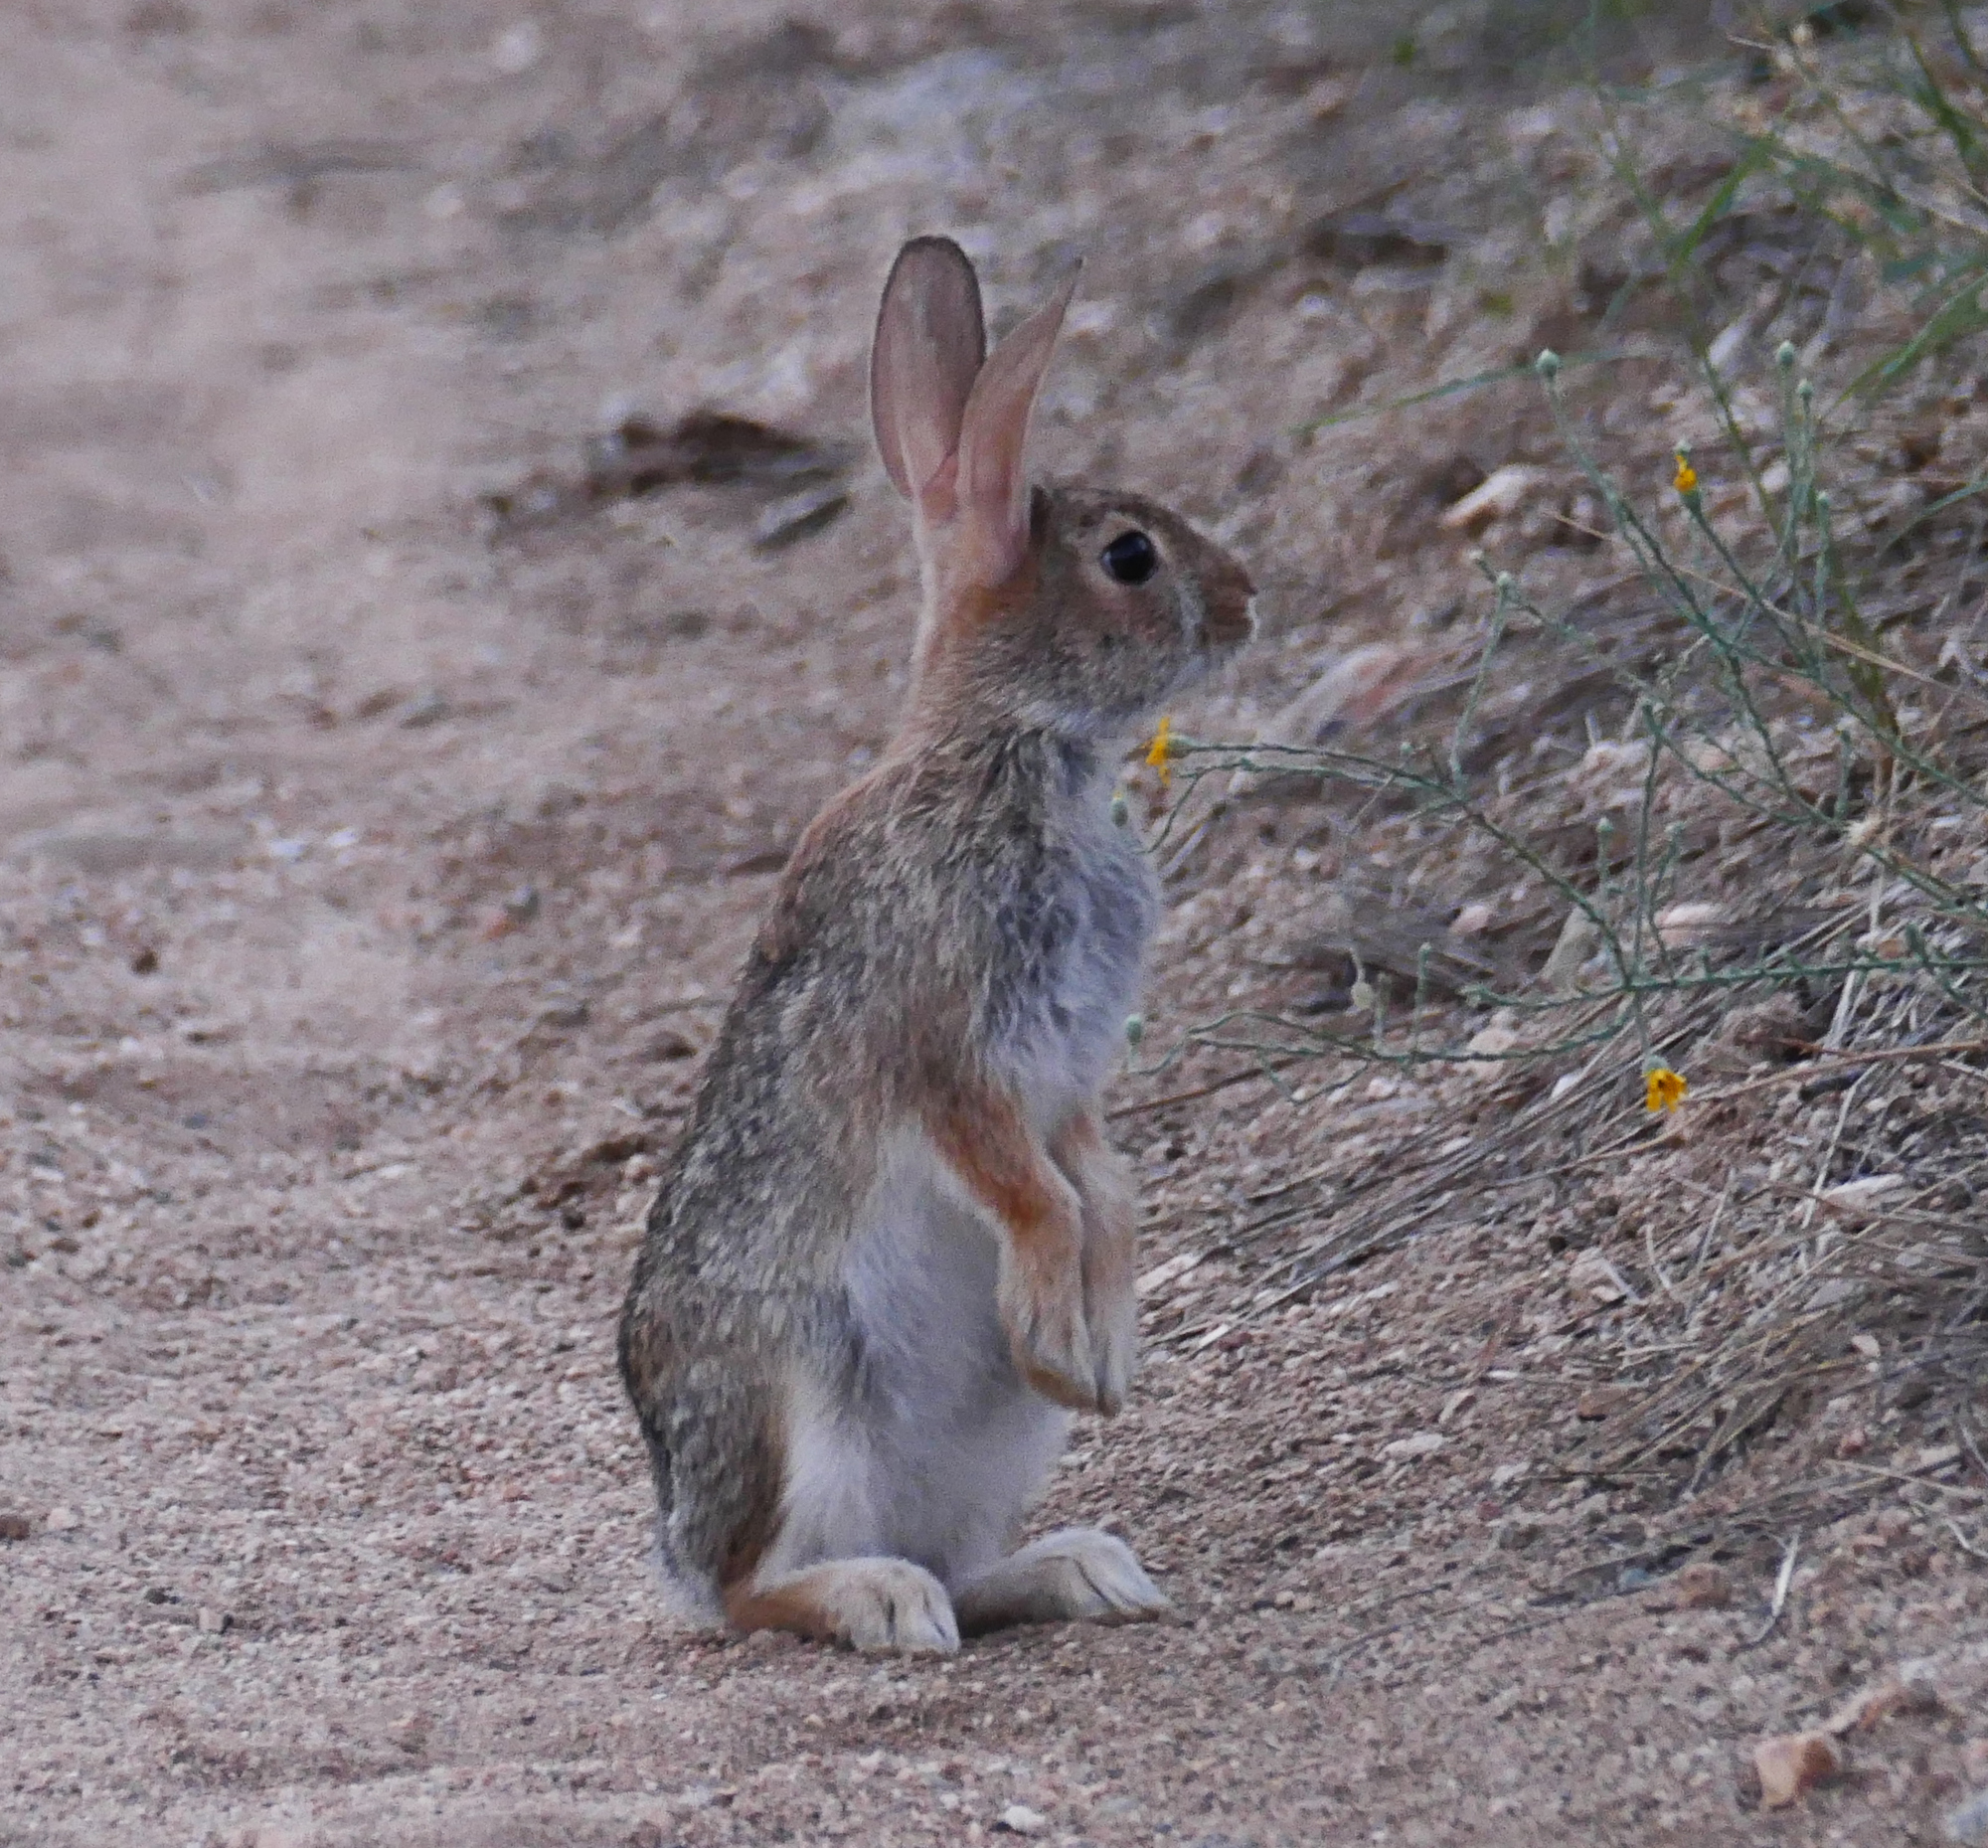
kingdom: Animalia
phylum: Chordata
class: Mammalia
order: Lagomorpha
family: Leporidae
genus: Sylvilagus
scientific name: Sylvilagus audubonii
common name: Desert cottontail
